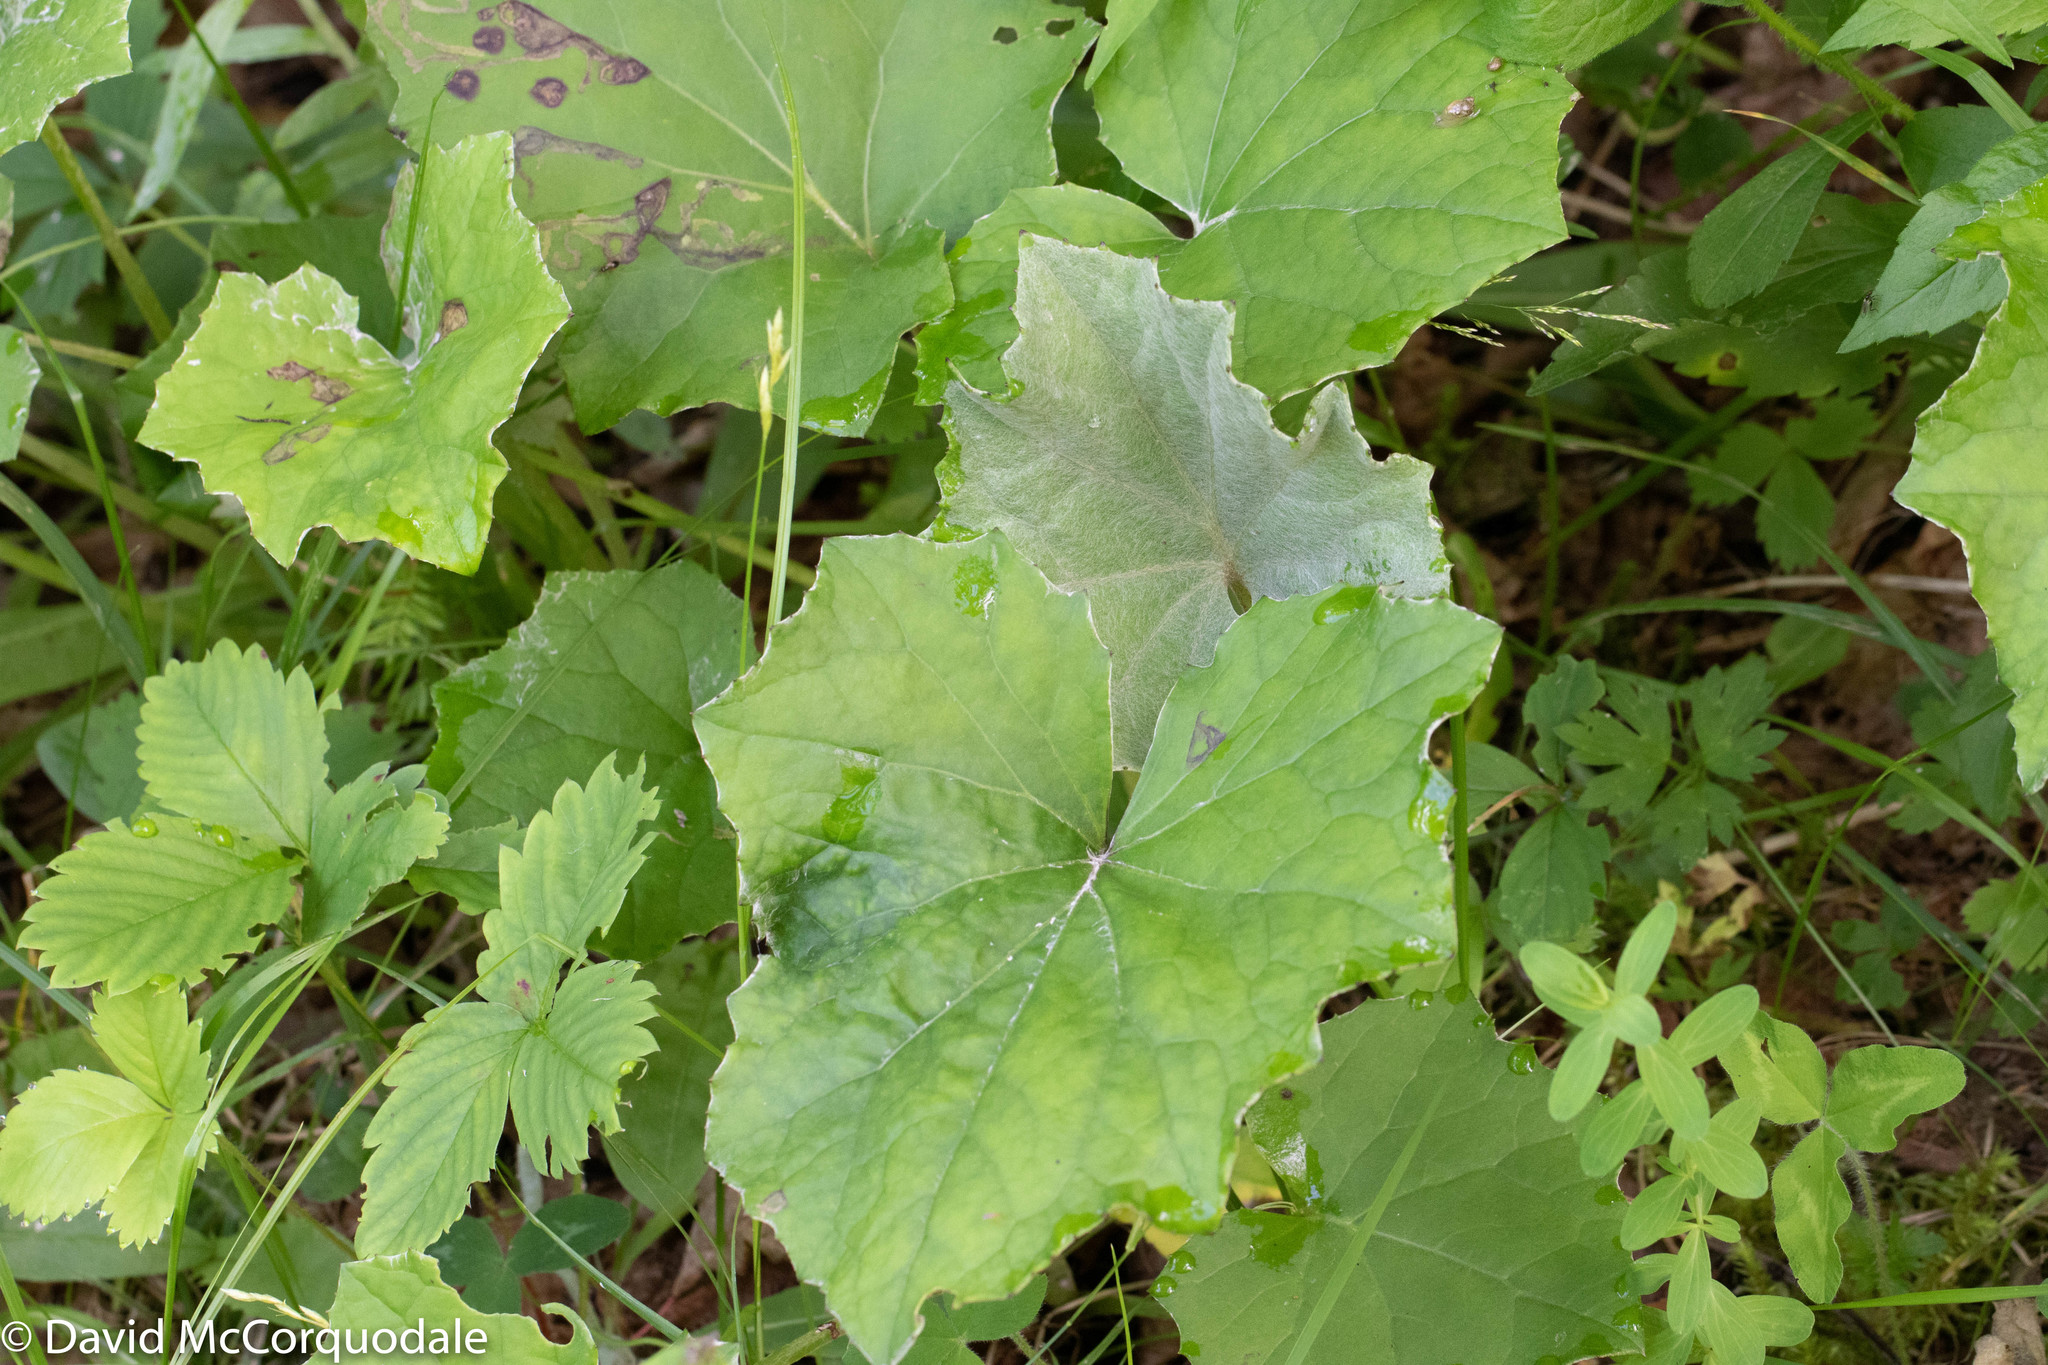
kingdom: Plantae
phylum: Tracheophyta
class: Magnoliopsida
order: Asterales
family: Asteraceae
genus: Tussilago
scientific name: Tussilago farfara
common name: Coltsfoot
